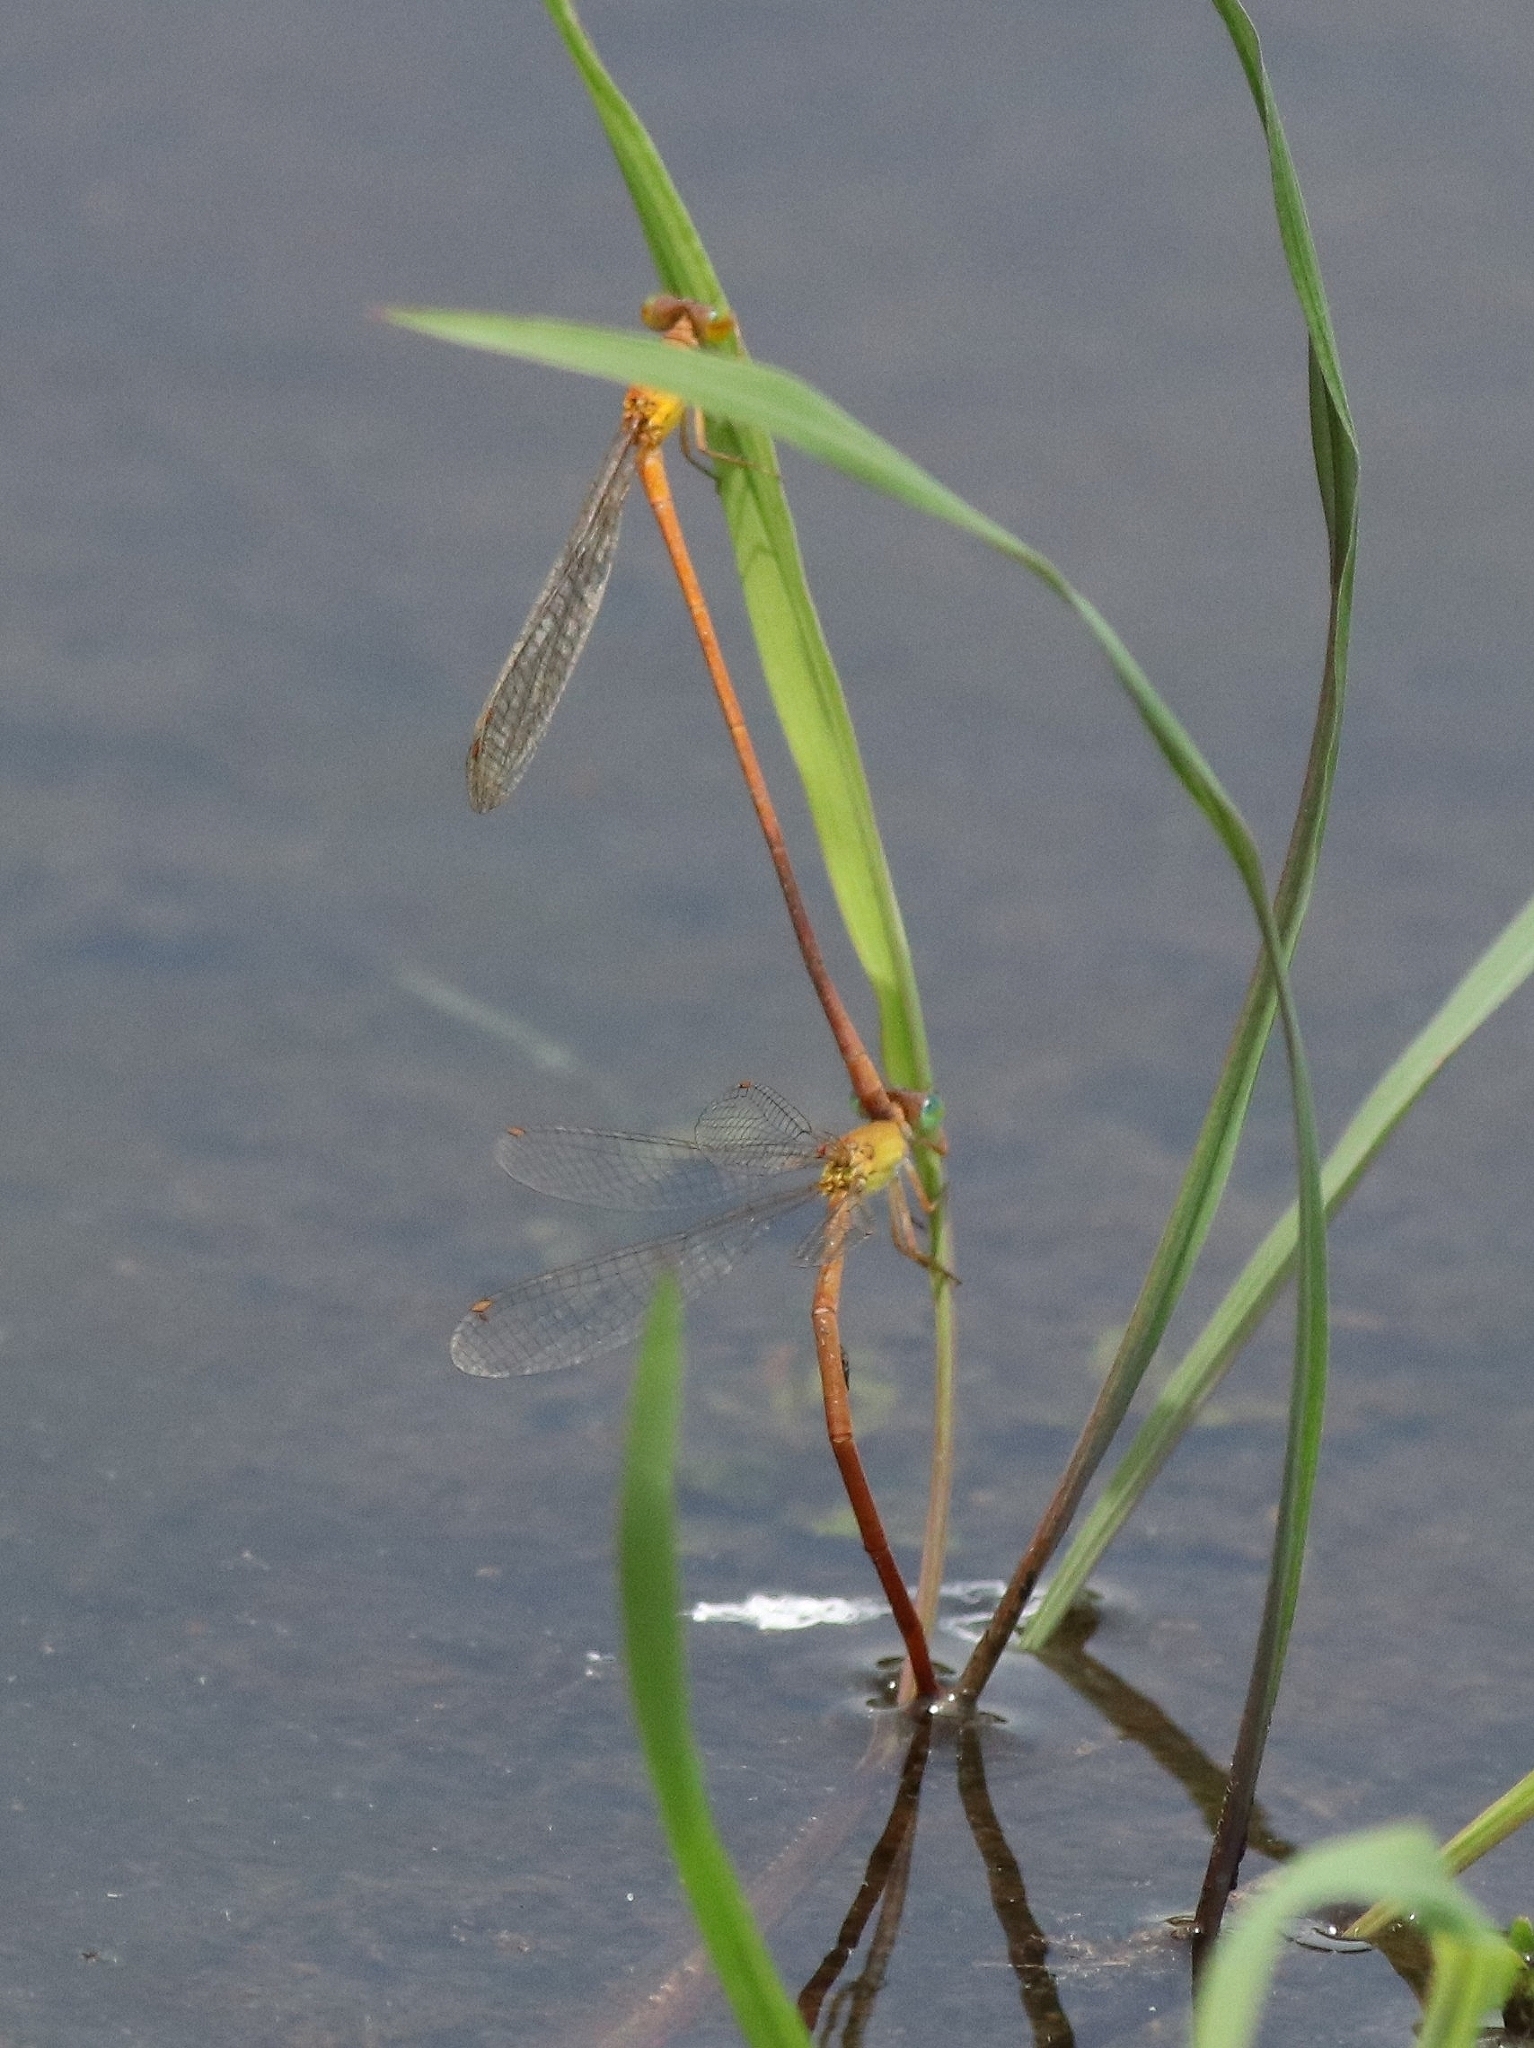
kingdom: Animalia
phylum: Arthropoda
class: Insecta
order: Odonata
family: Coenagrionidae
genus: Ceriagrion
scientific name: Ceriagrion rubiae
